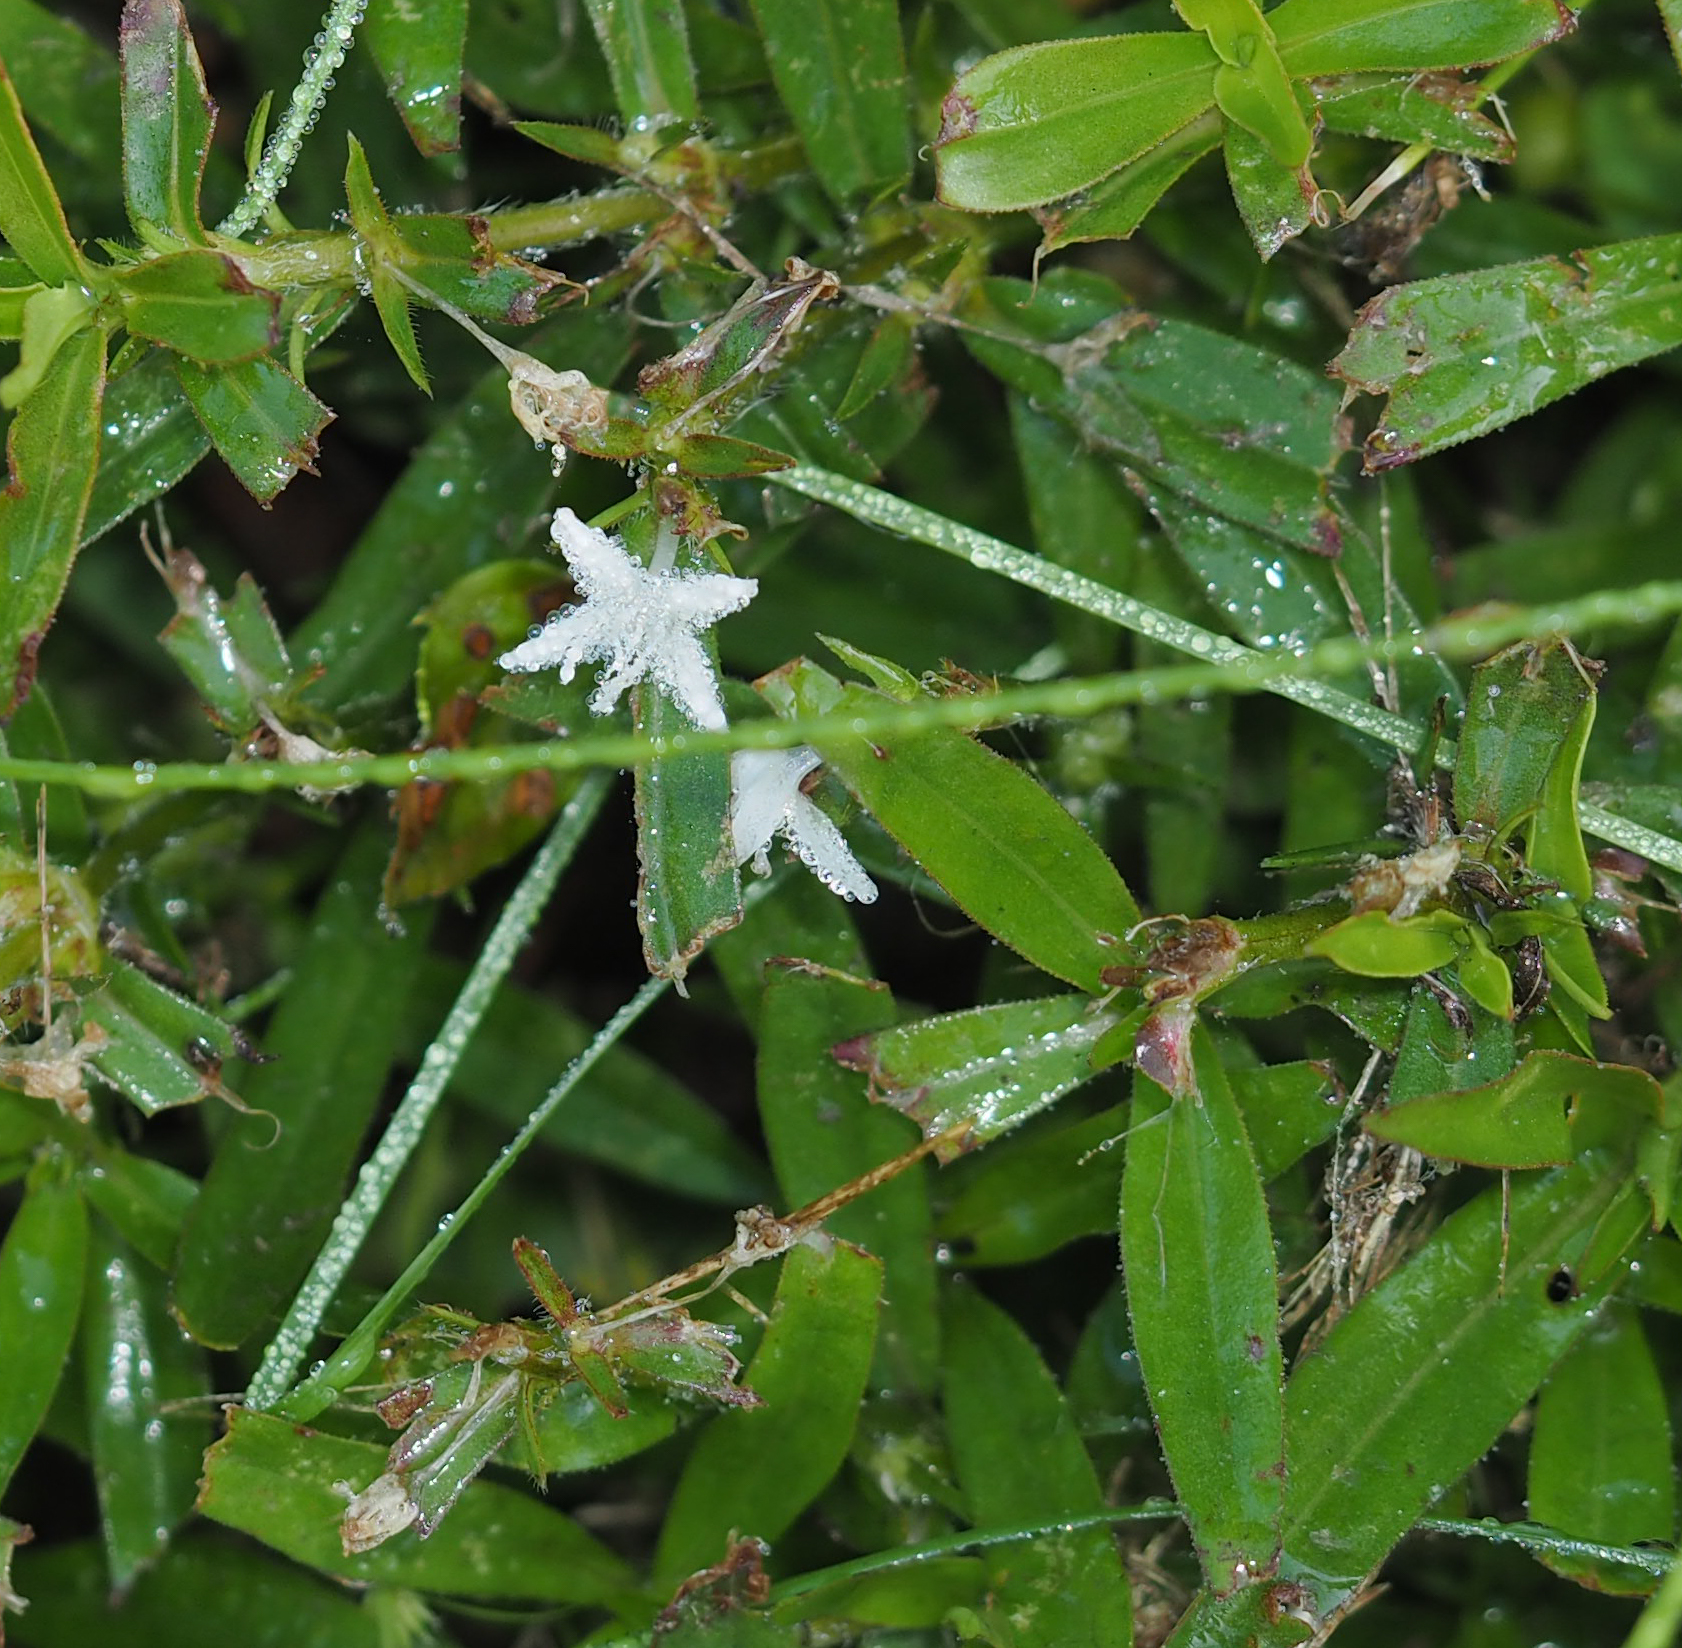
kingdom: Plantae
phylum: Tracheophyta
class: Magnoliopsida
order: Gentianales
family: Rubiaceae
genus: Diodia
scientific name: Diodia virginiana
